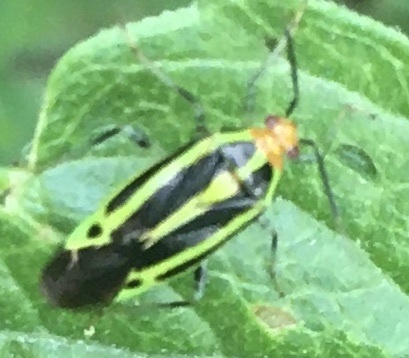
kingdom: Animalia
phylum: Arthropoda
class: Insecta
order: Hemiptera
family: Miridae
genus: Poecilocapsus
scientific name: Poecilocapsus lineatus
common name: Four-lined plant bug
